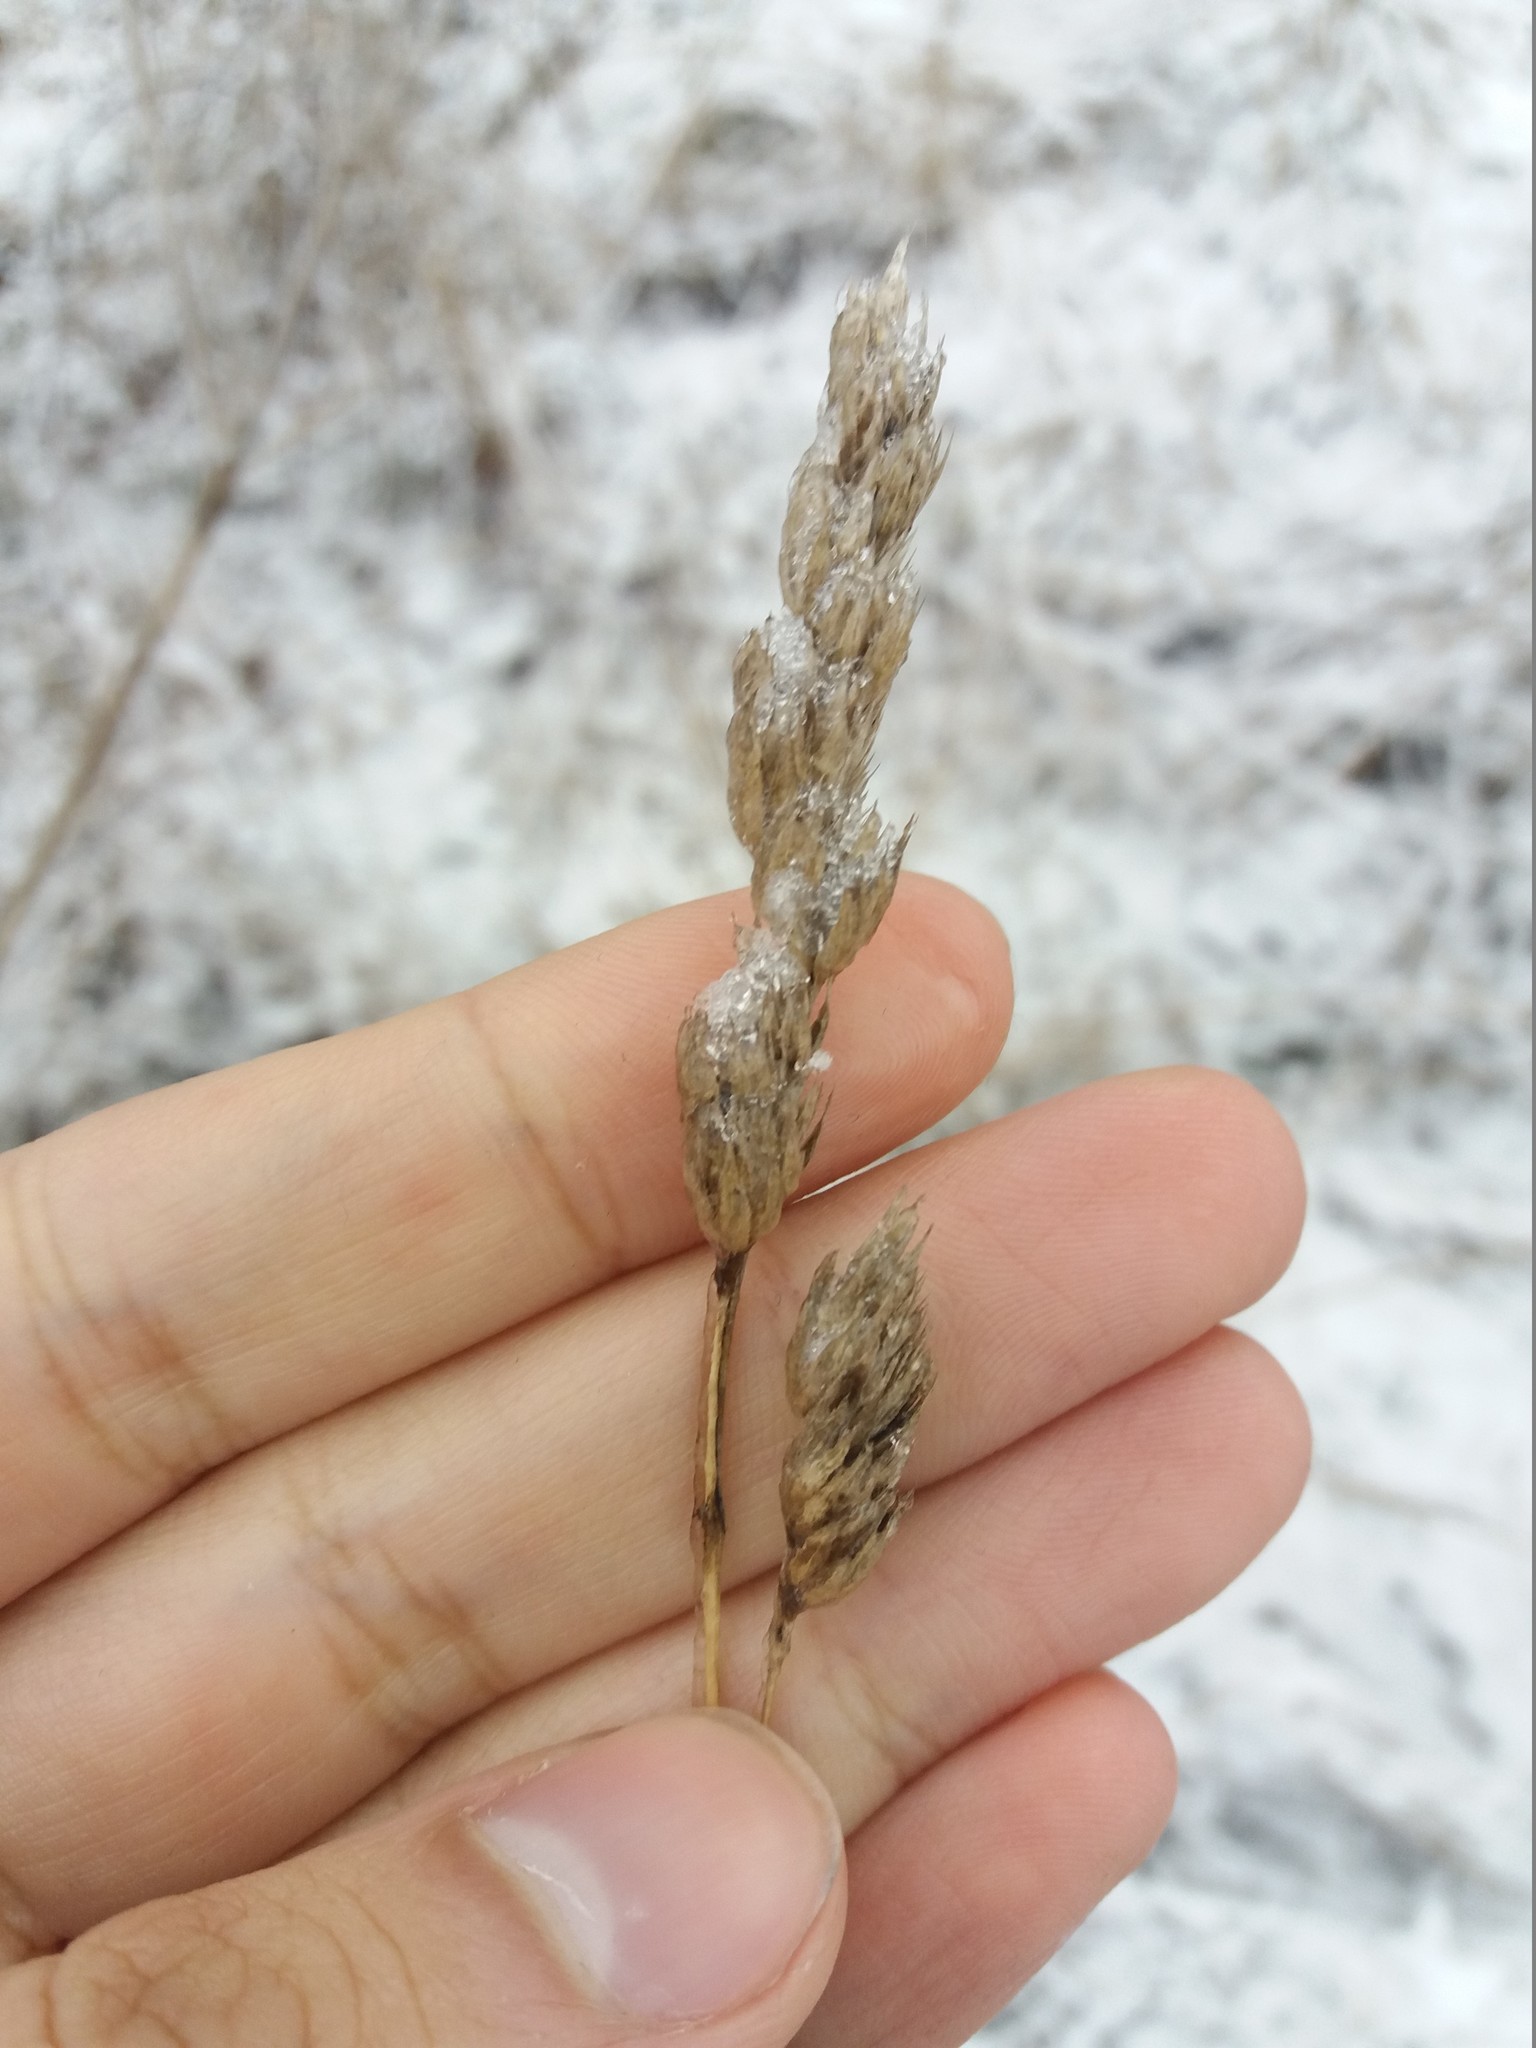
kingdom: Plantae
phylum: Tracheophyta
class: Liliopsida
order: Poales
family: Poaceae
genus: Dactylis
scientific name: Dactylis glomerata
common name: Orchardgrass
